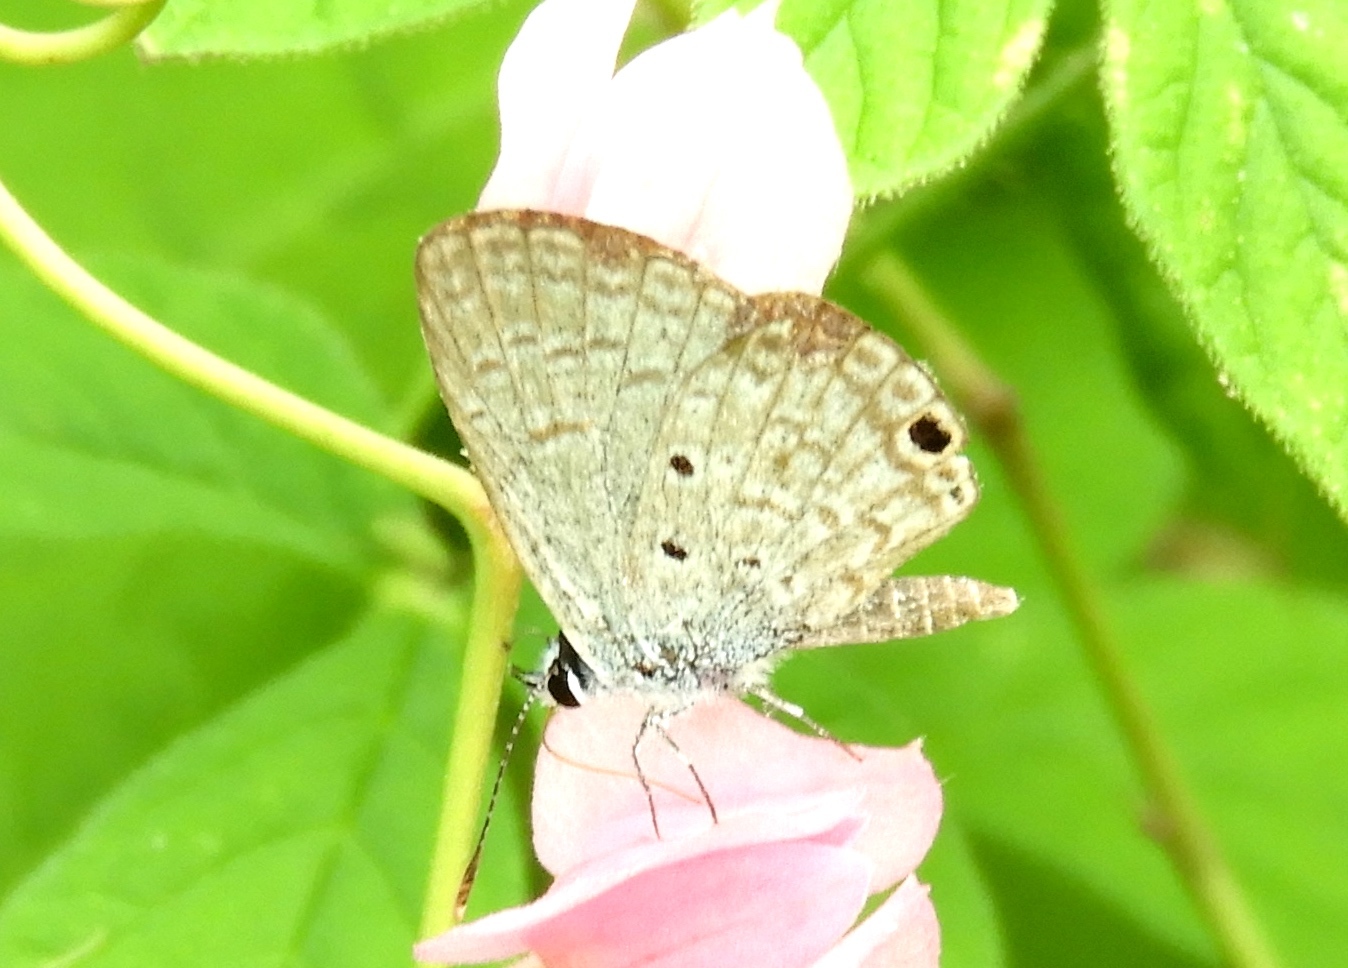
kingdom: Animalia
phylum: Arthropoda
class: Insecta
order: Lepidoptera
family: Lycaenidae
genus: Hemiargus
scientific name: Hemiargus ceraunus
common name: Ceraunus blue
